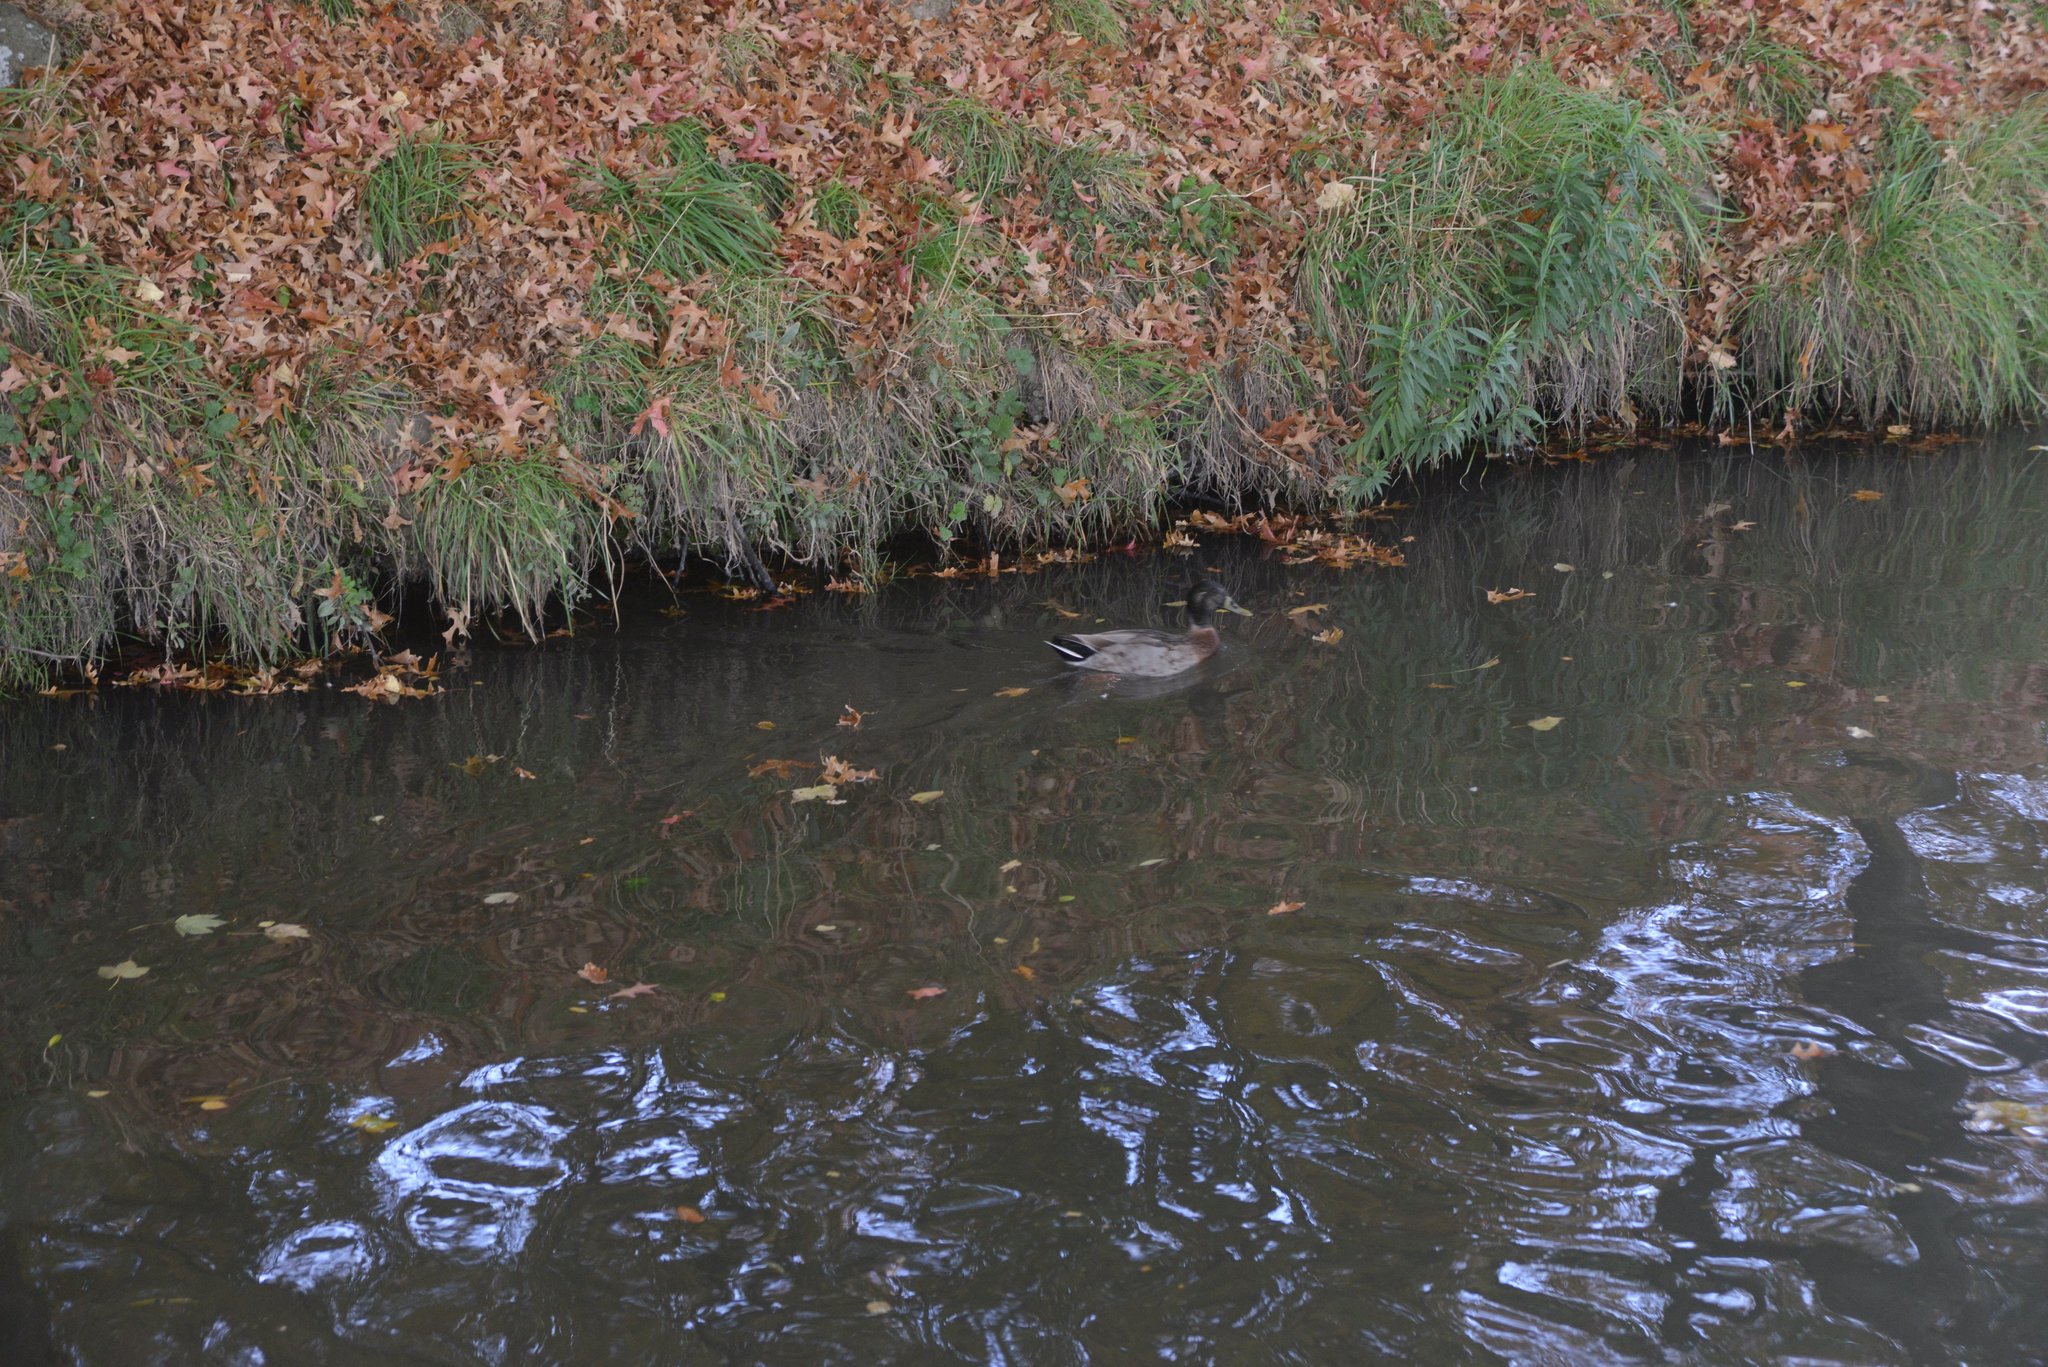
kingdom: Animalia
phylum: Chordata
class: Aves
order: Anseriformes
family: Anatidae
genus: Anas
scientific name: Anas platyrhynchos
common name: Mallard
